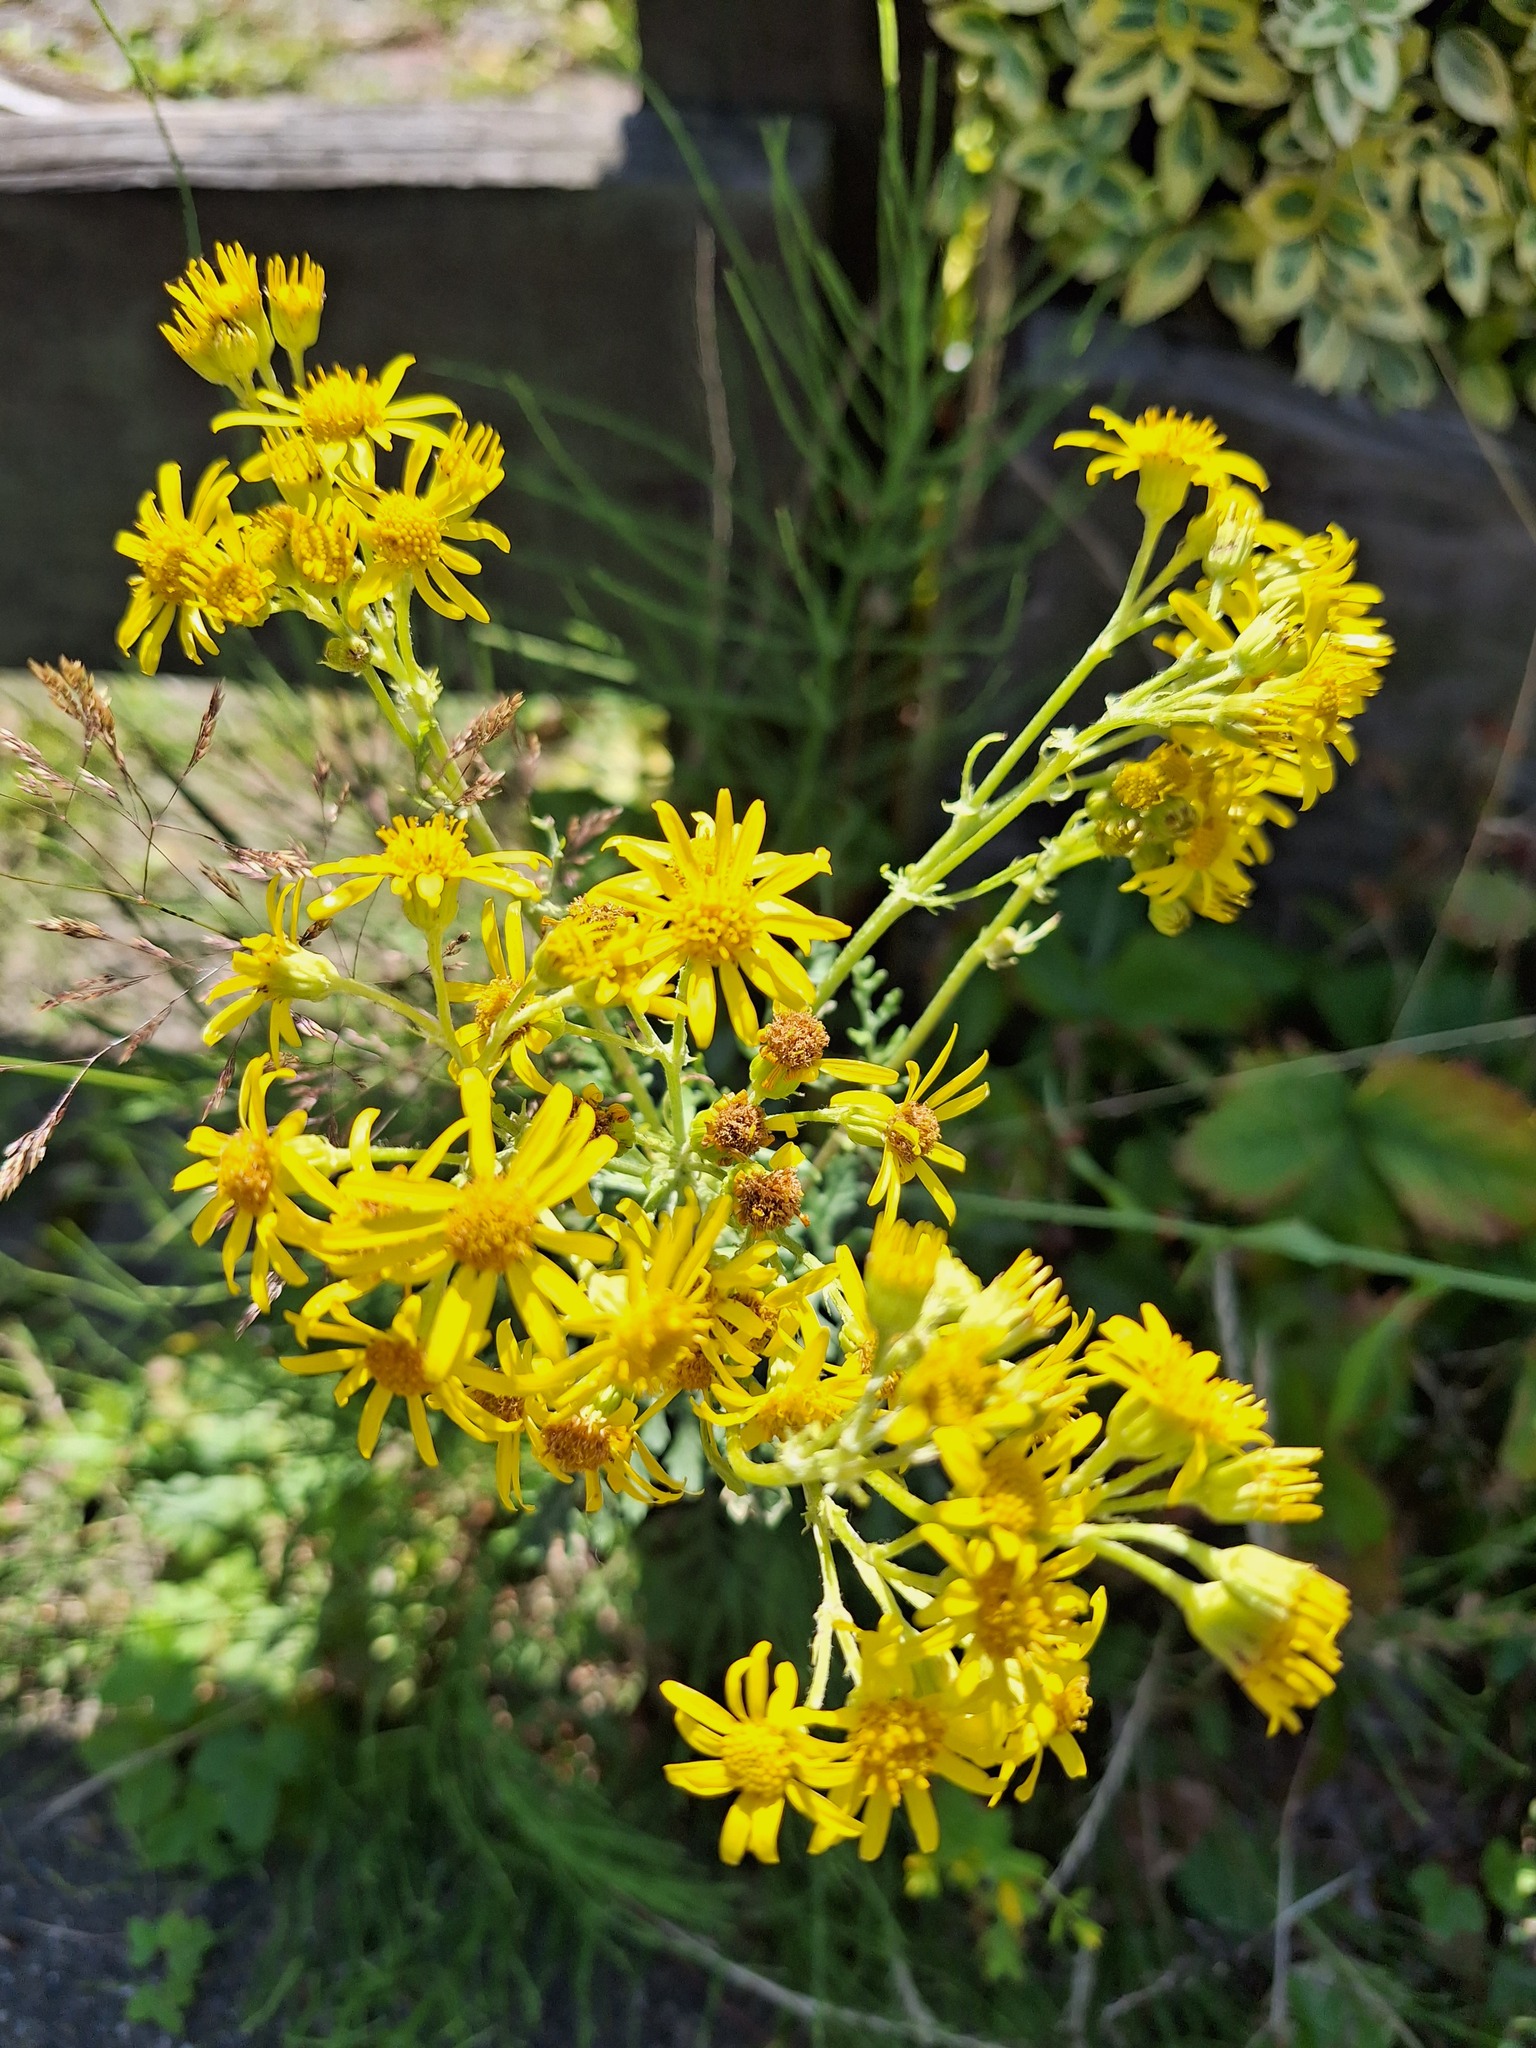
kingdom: Plantae
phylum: Tracheophyta
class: Magnoliopsida
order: Asterales
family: Asteraceae
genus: Jacobaea
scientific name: Jacobaea vulgaris
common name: Stinking willie
